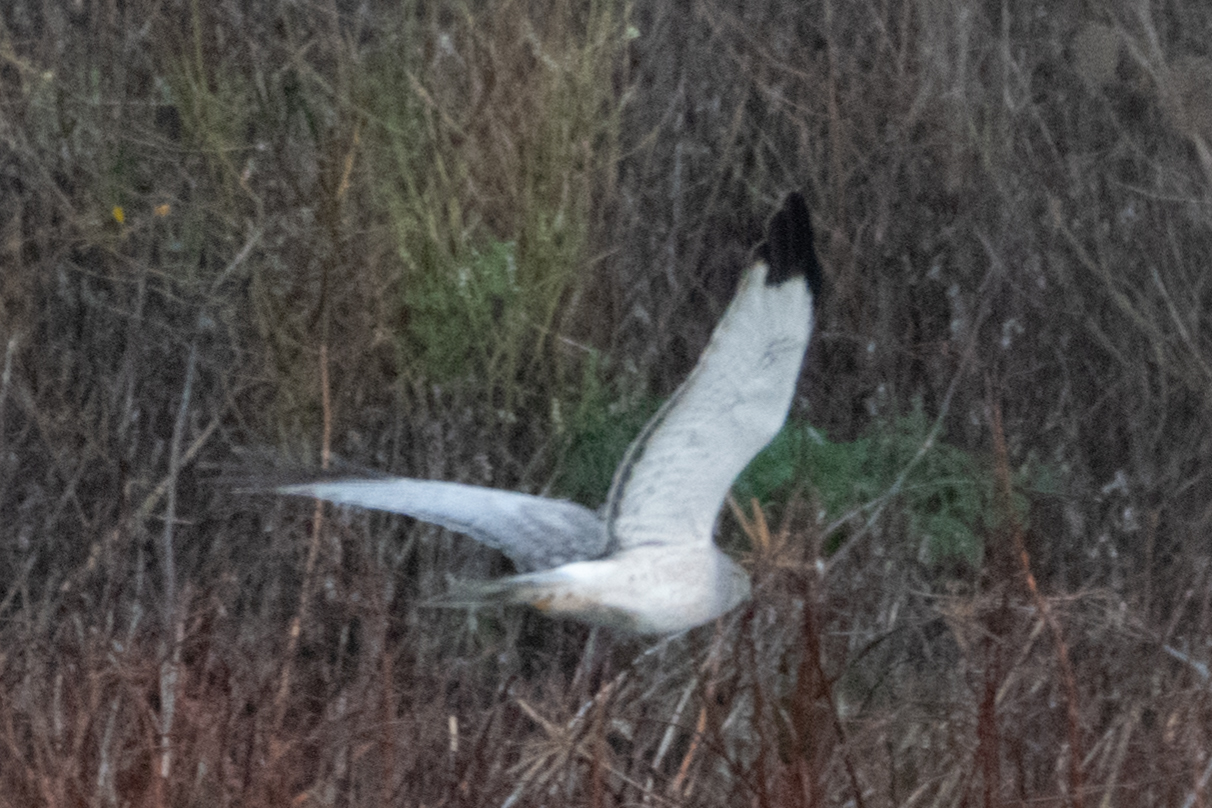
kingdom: Animalia
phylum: Chordata
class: Aves
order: Accipitriformes
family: Accipitridae
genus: Circus
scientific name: Circus cyaneus
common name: Hen harrier
